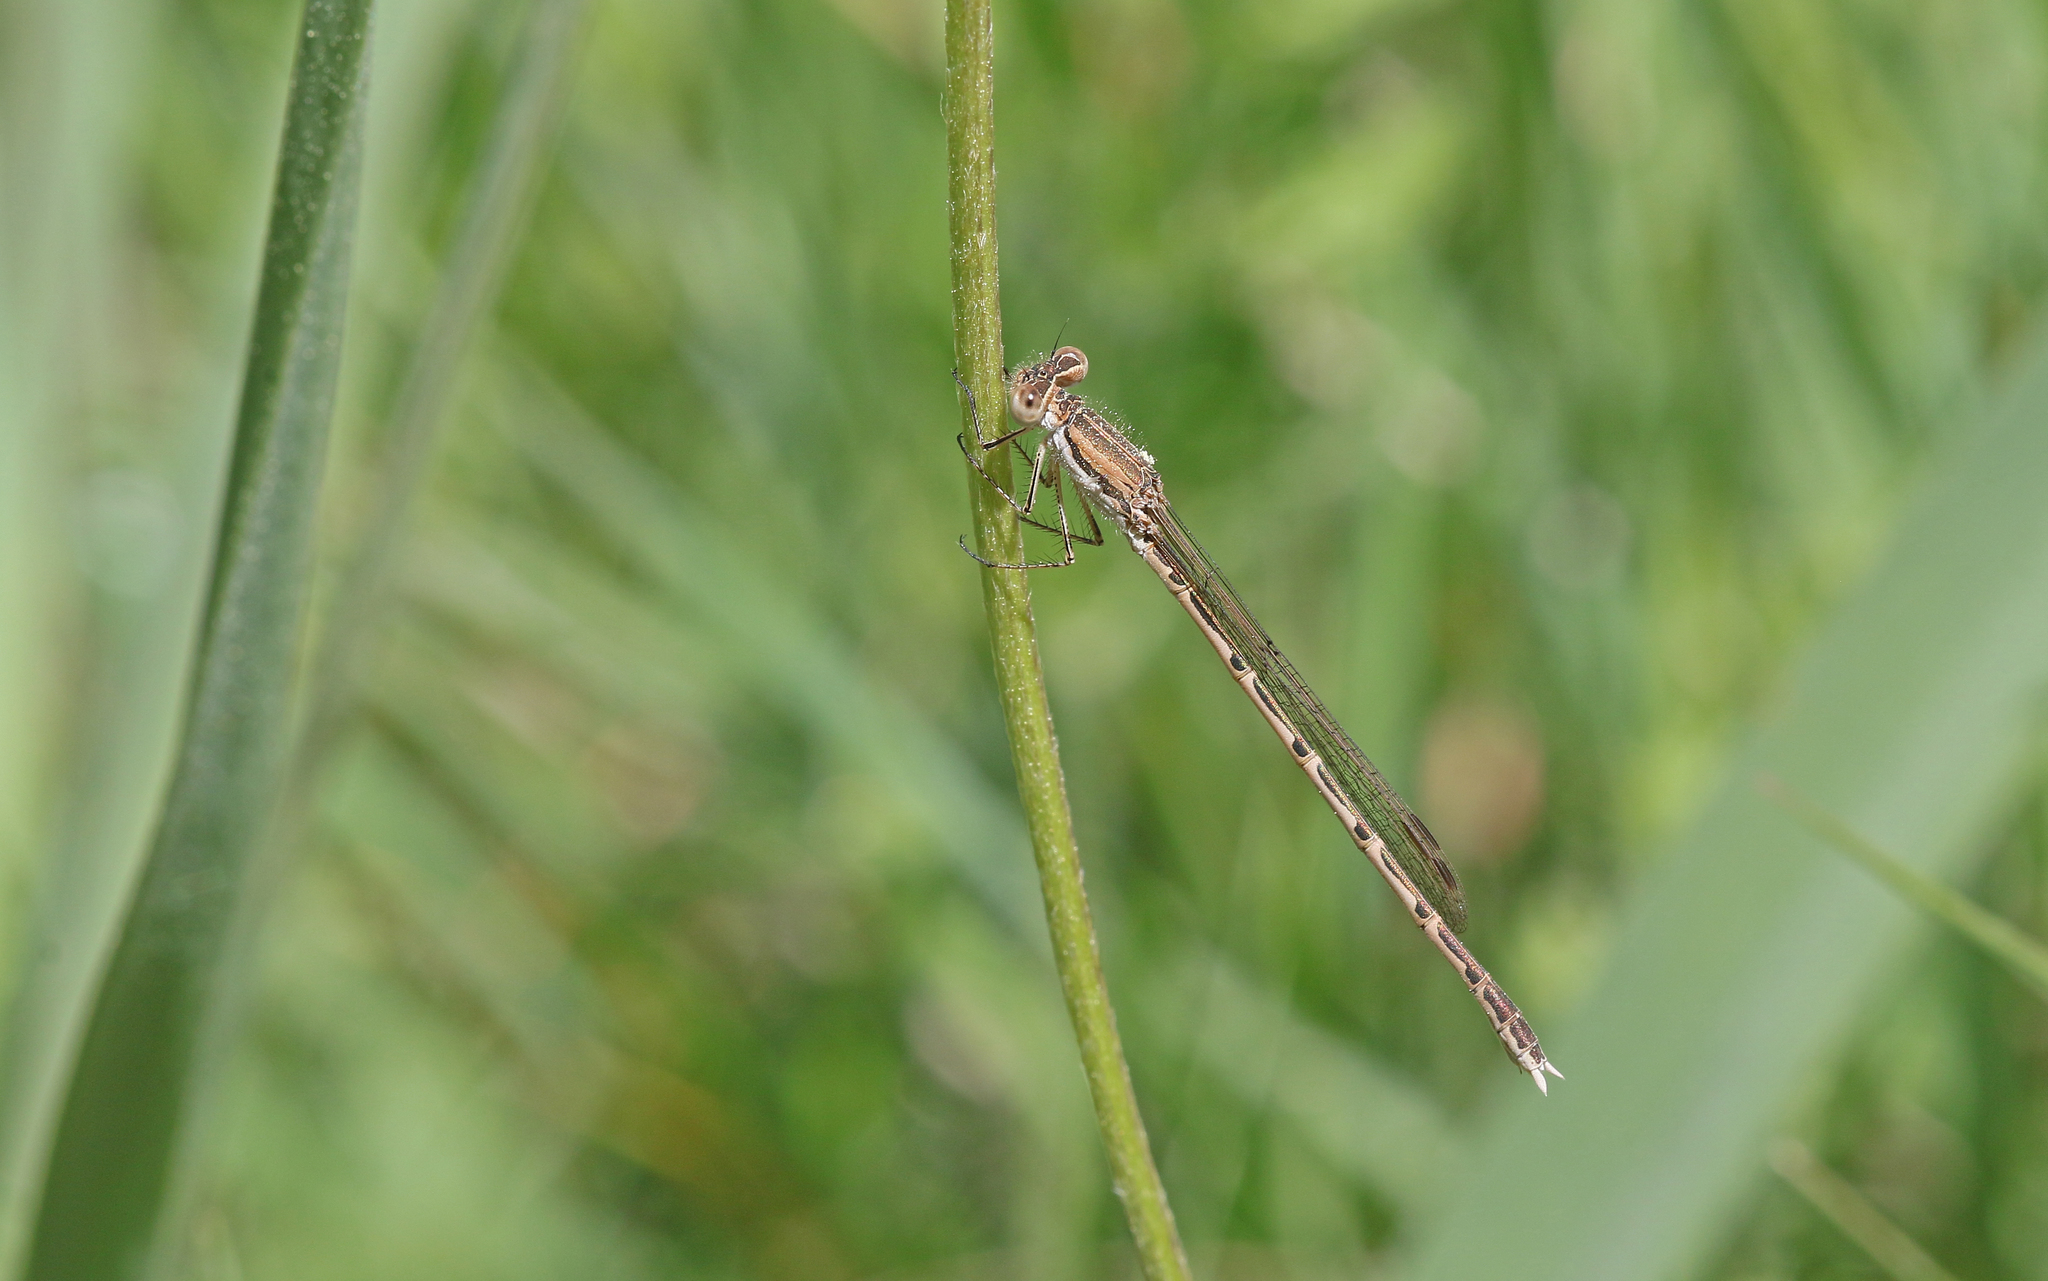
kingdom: Animalia
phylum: Arthropoda
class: Insecta
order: Odonata
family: Lestidae
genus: Sympecma
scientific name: Sympecma fusca
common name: Common winter damsel
